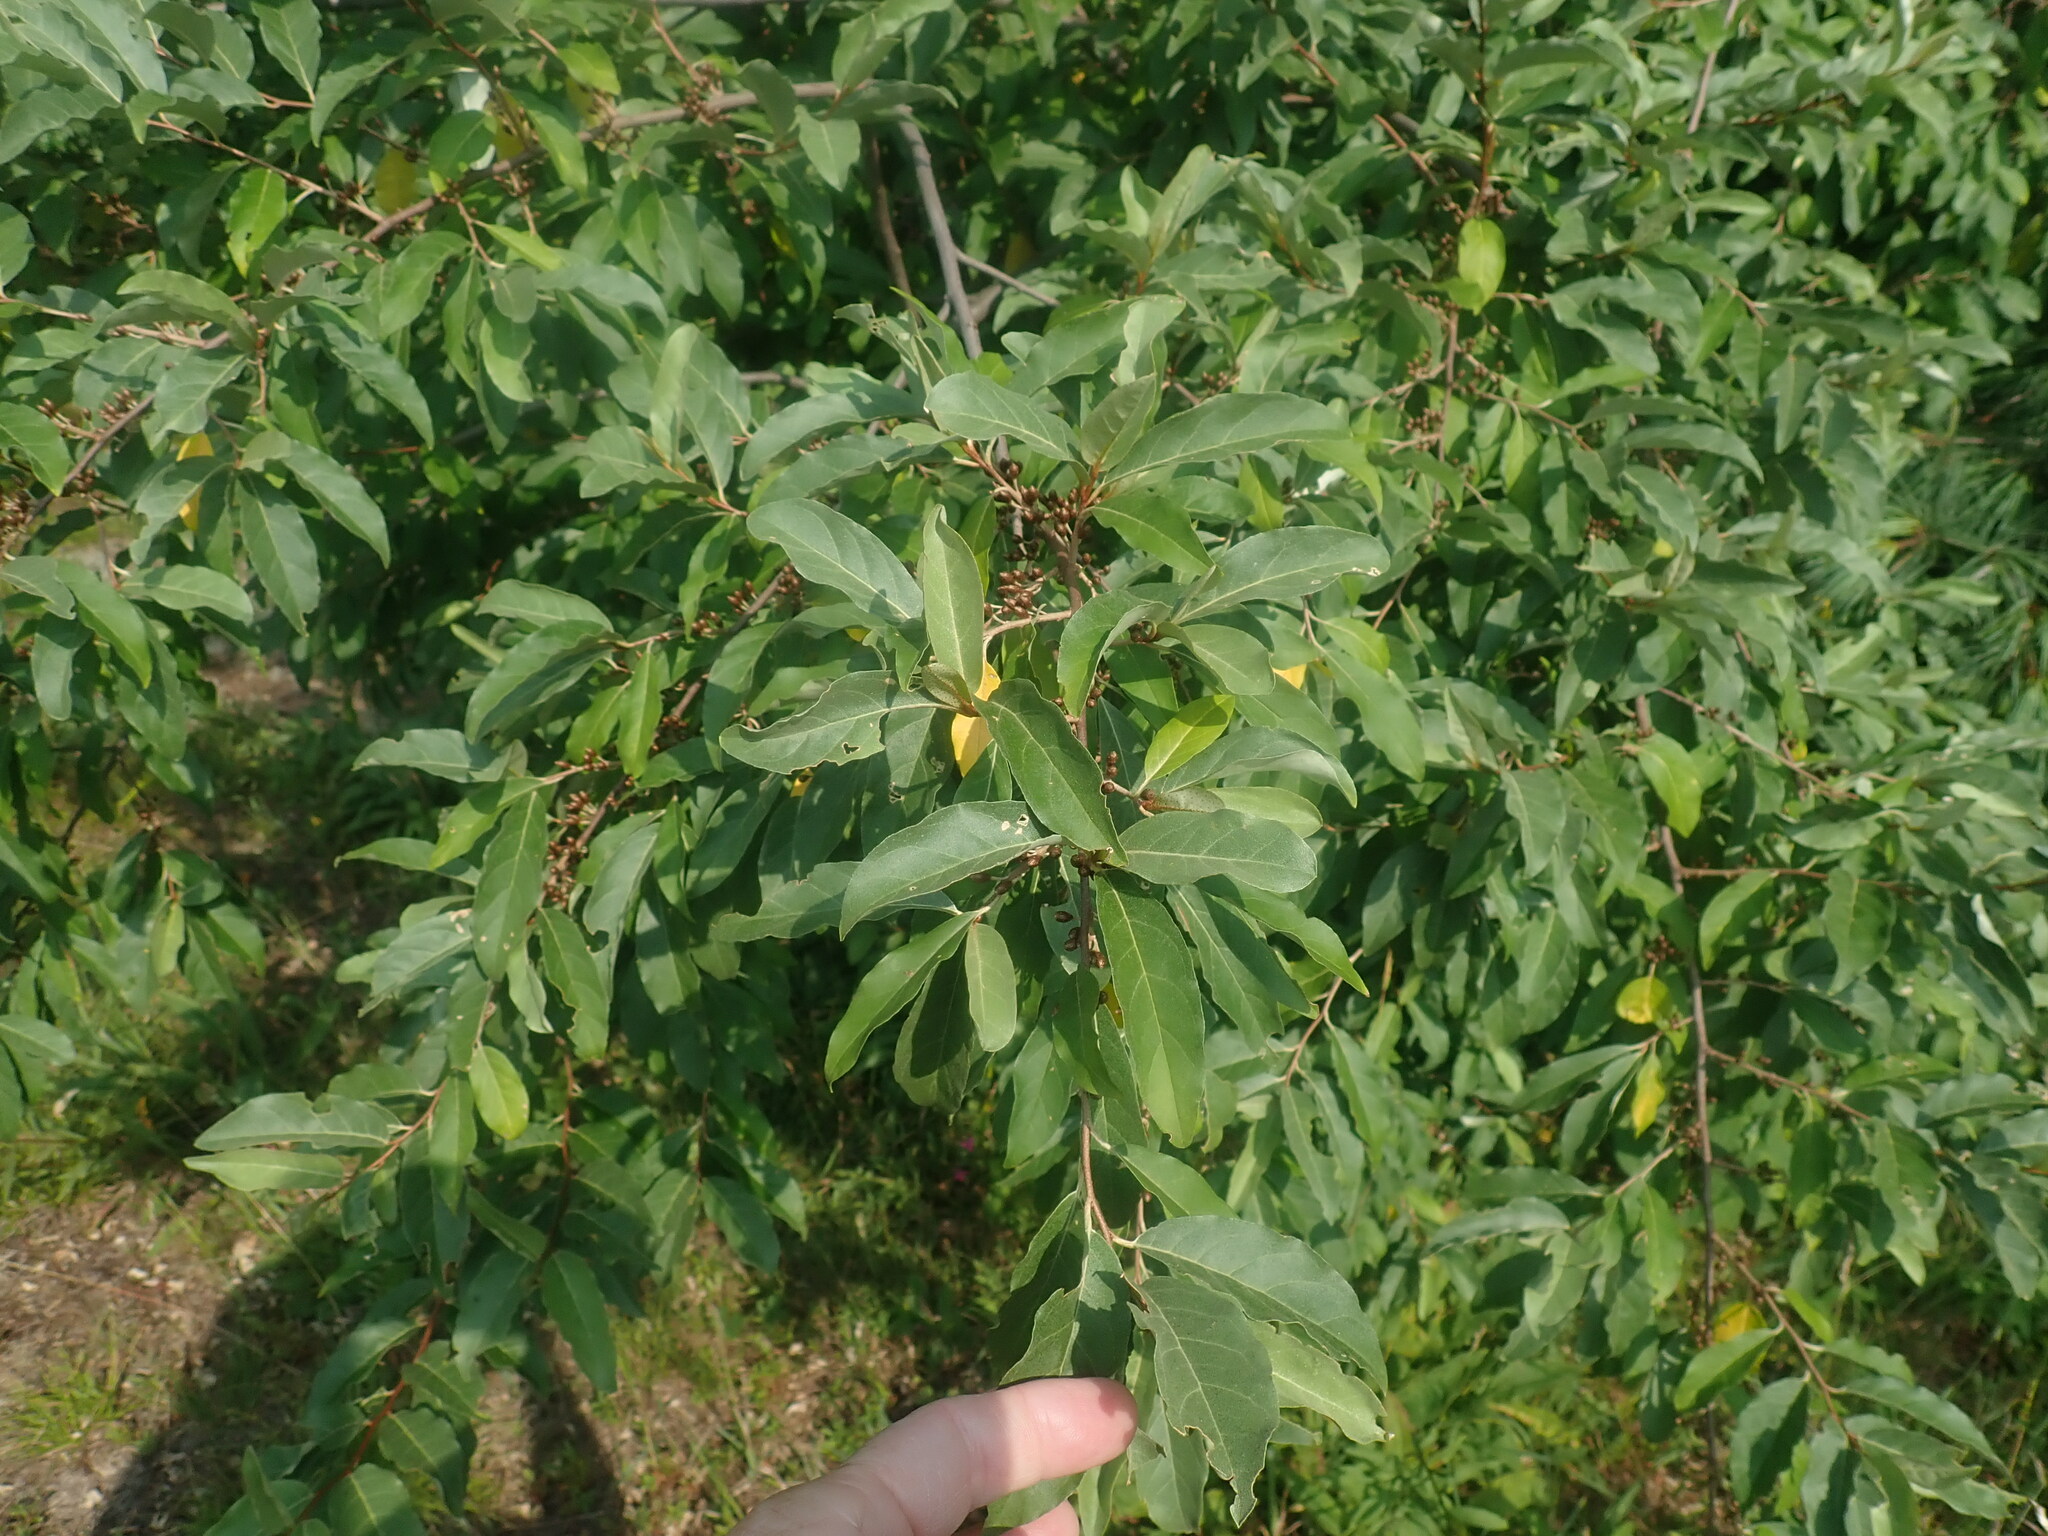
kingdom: Plantae
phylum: Tracheophyta
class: Magnoliopsida
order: Rosales
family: Elaeagnaceae
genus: Elaeagnus
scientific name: Elaeagnus umbellata
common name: Autumn olive
